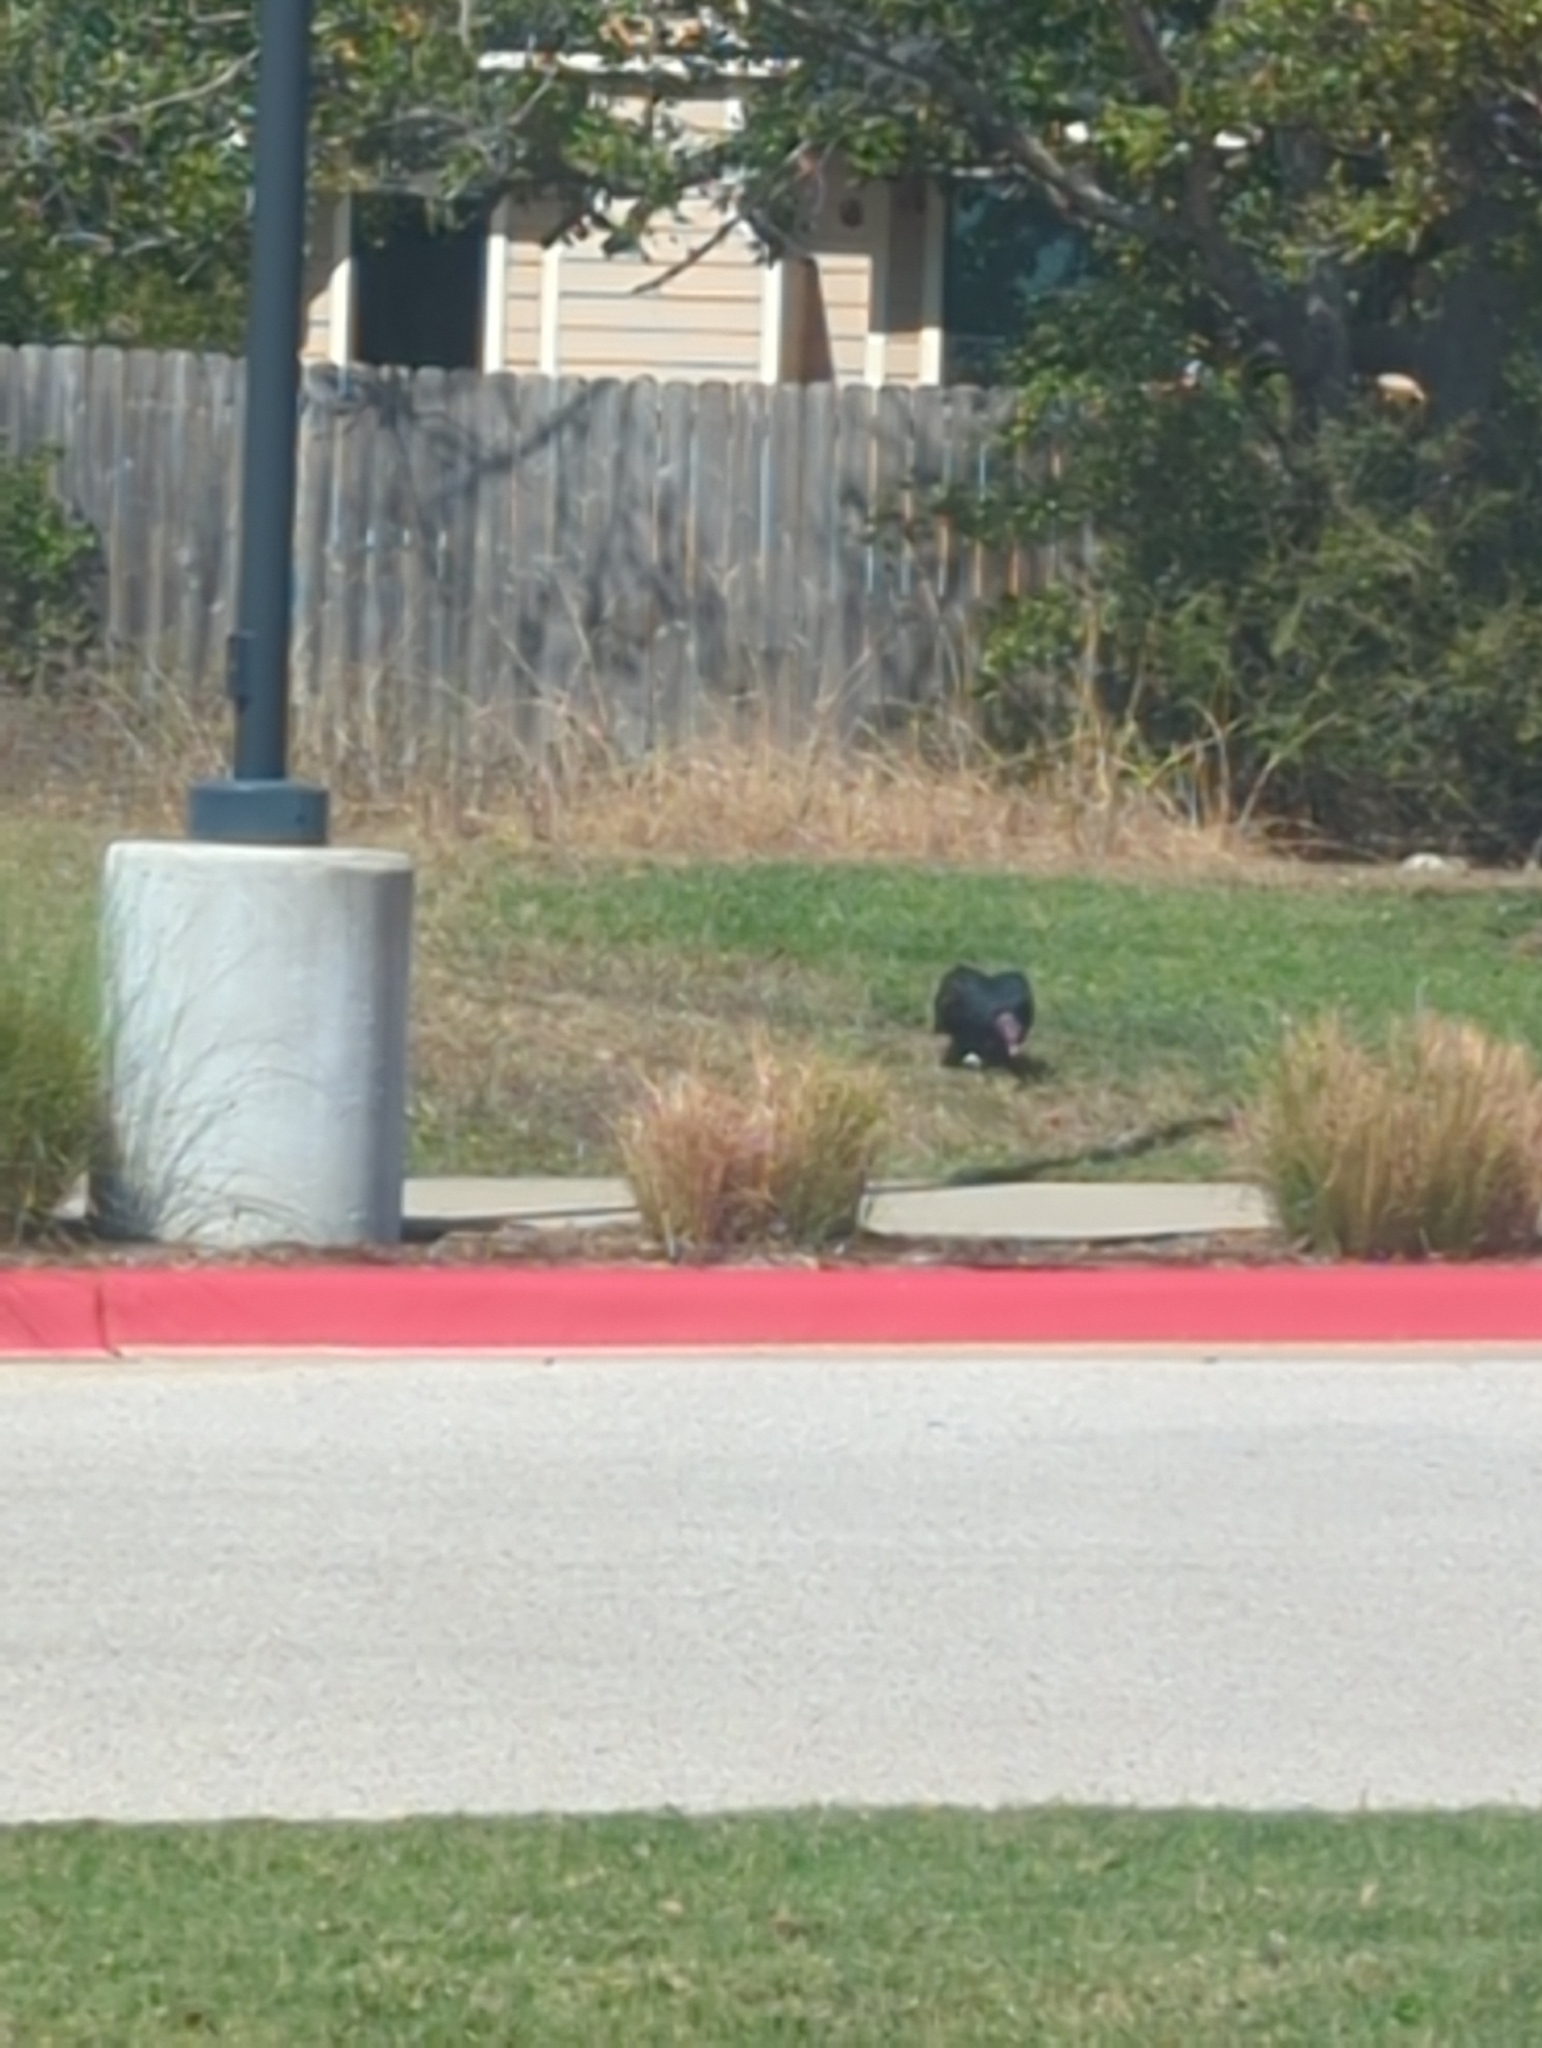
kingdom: Animalia
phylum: Chordata
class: Aves
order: Accipitriformes
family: Cathartidae
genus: Cathartes
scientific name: Cathartes aura
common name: Turkey vulture
